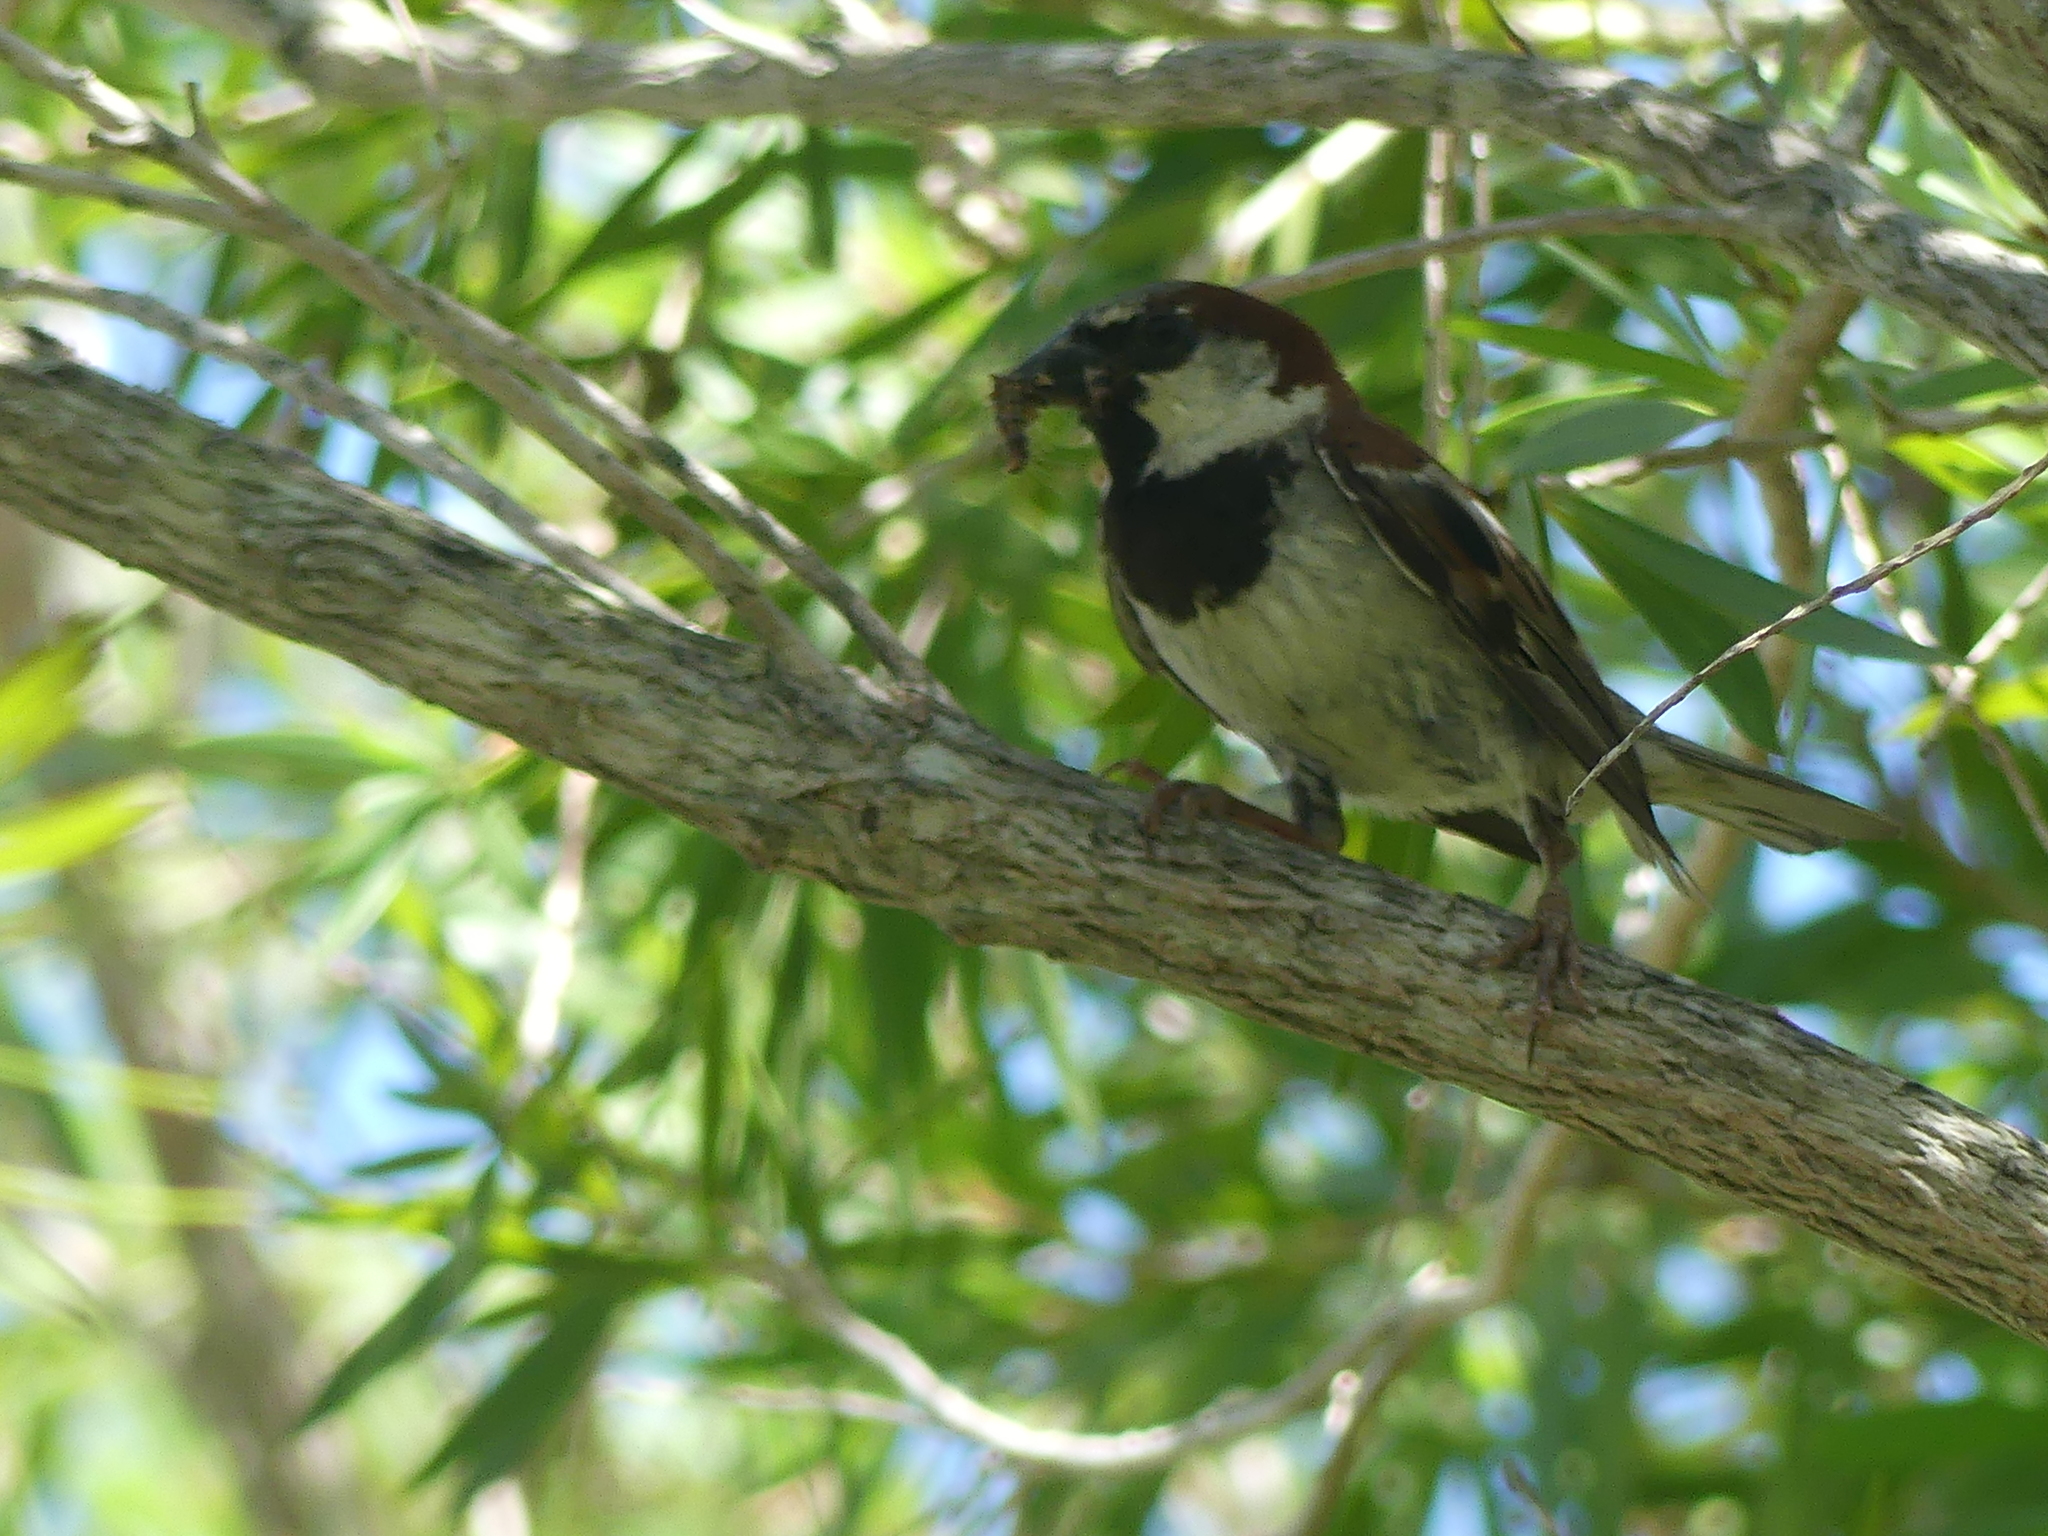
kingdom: Animalia
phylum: Chordata
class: Aves
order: Passeriformes
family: Passeridae
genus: Passer
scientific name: Passer domesticus
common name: House sparrow
